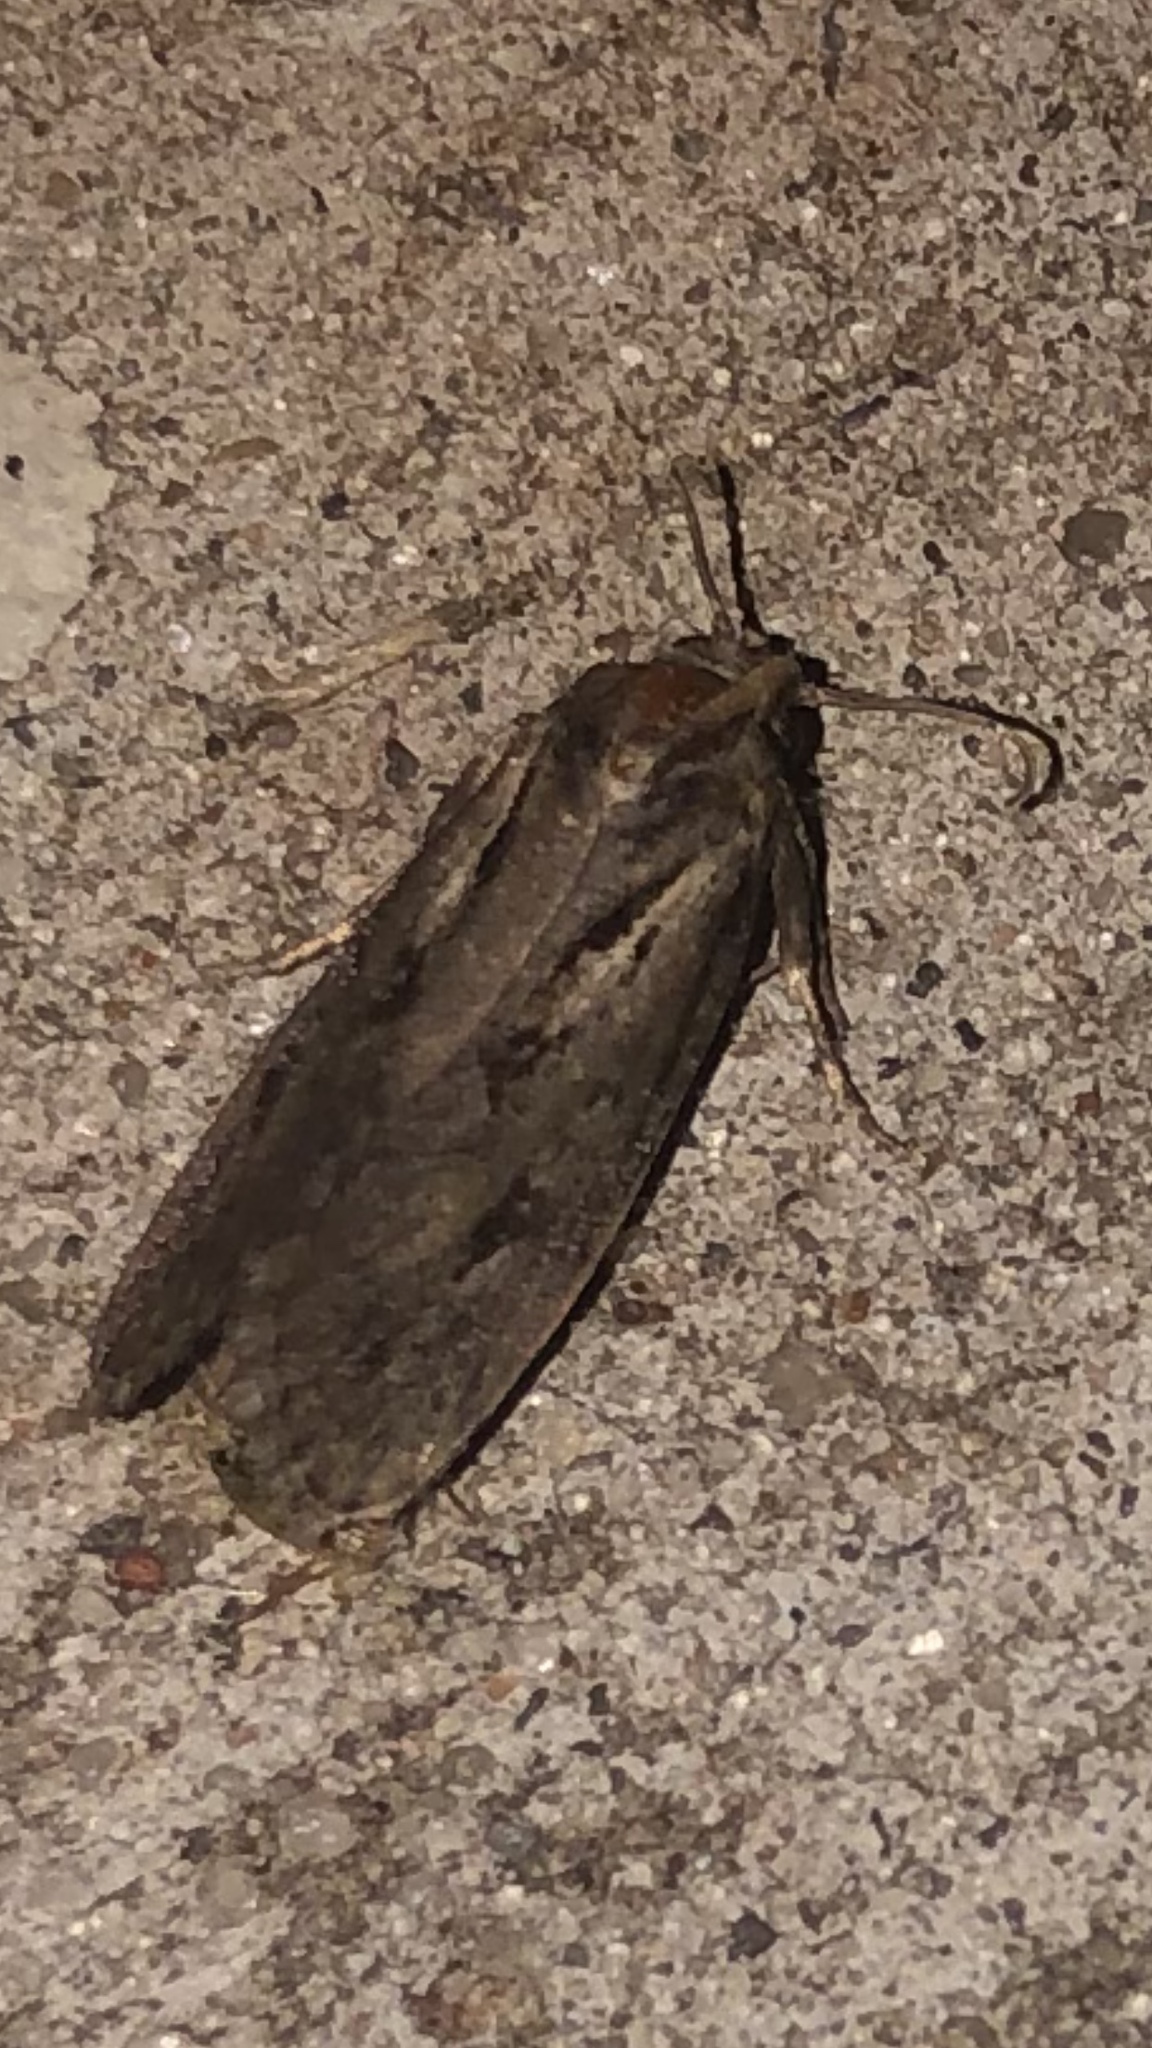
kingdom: Animalia
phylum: Arthropoda
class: Insecta
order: Lepidoptera
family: Tineidae
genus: Acrolophus
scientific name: Acrolophus popeanella
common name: Clemens' grass tubeworm moth
